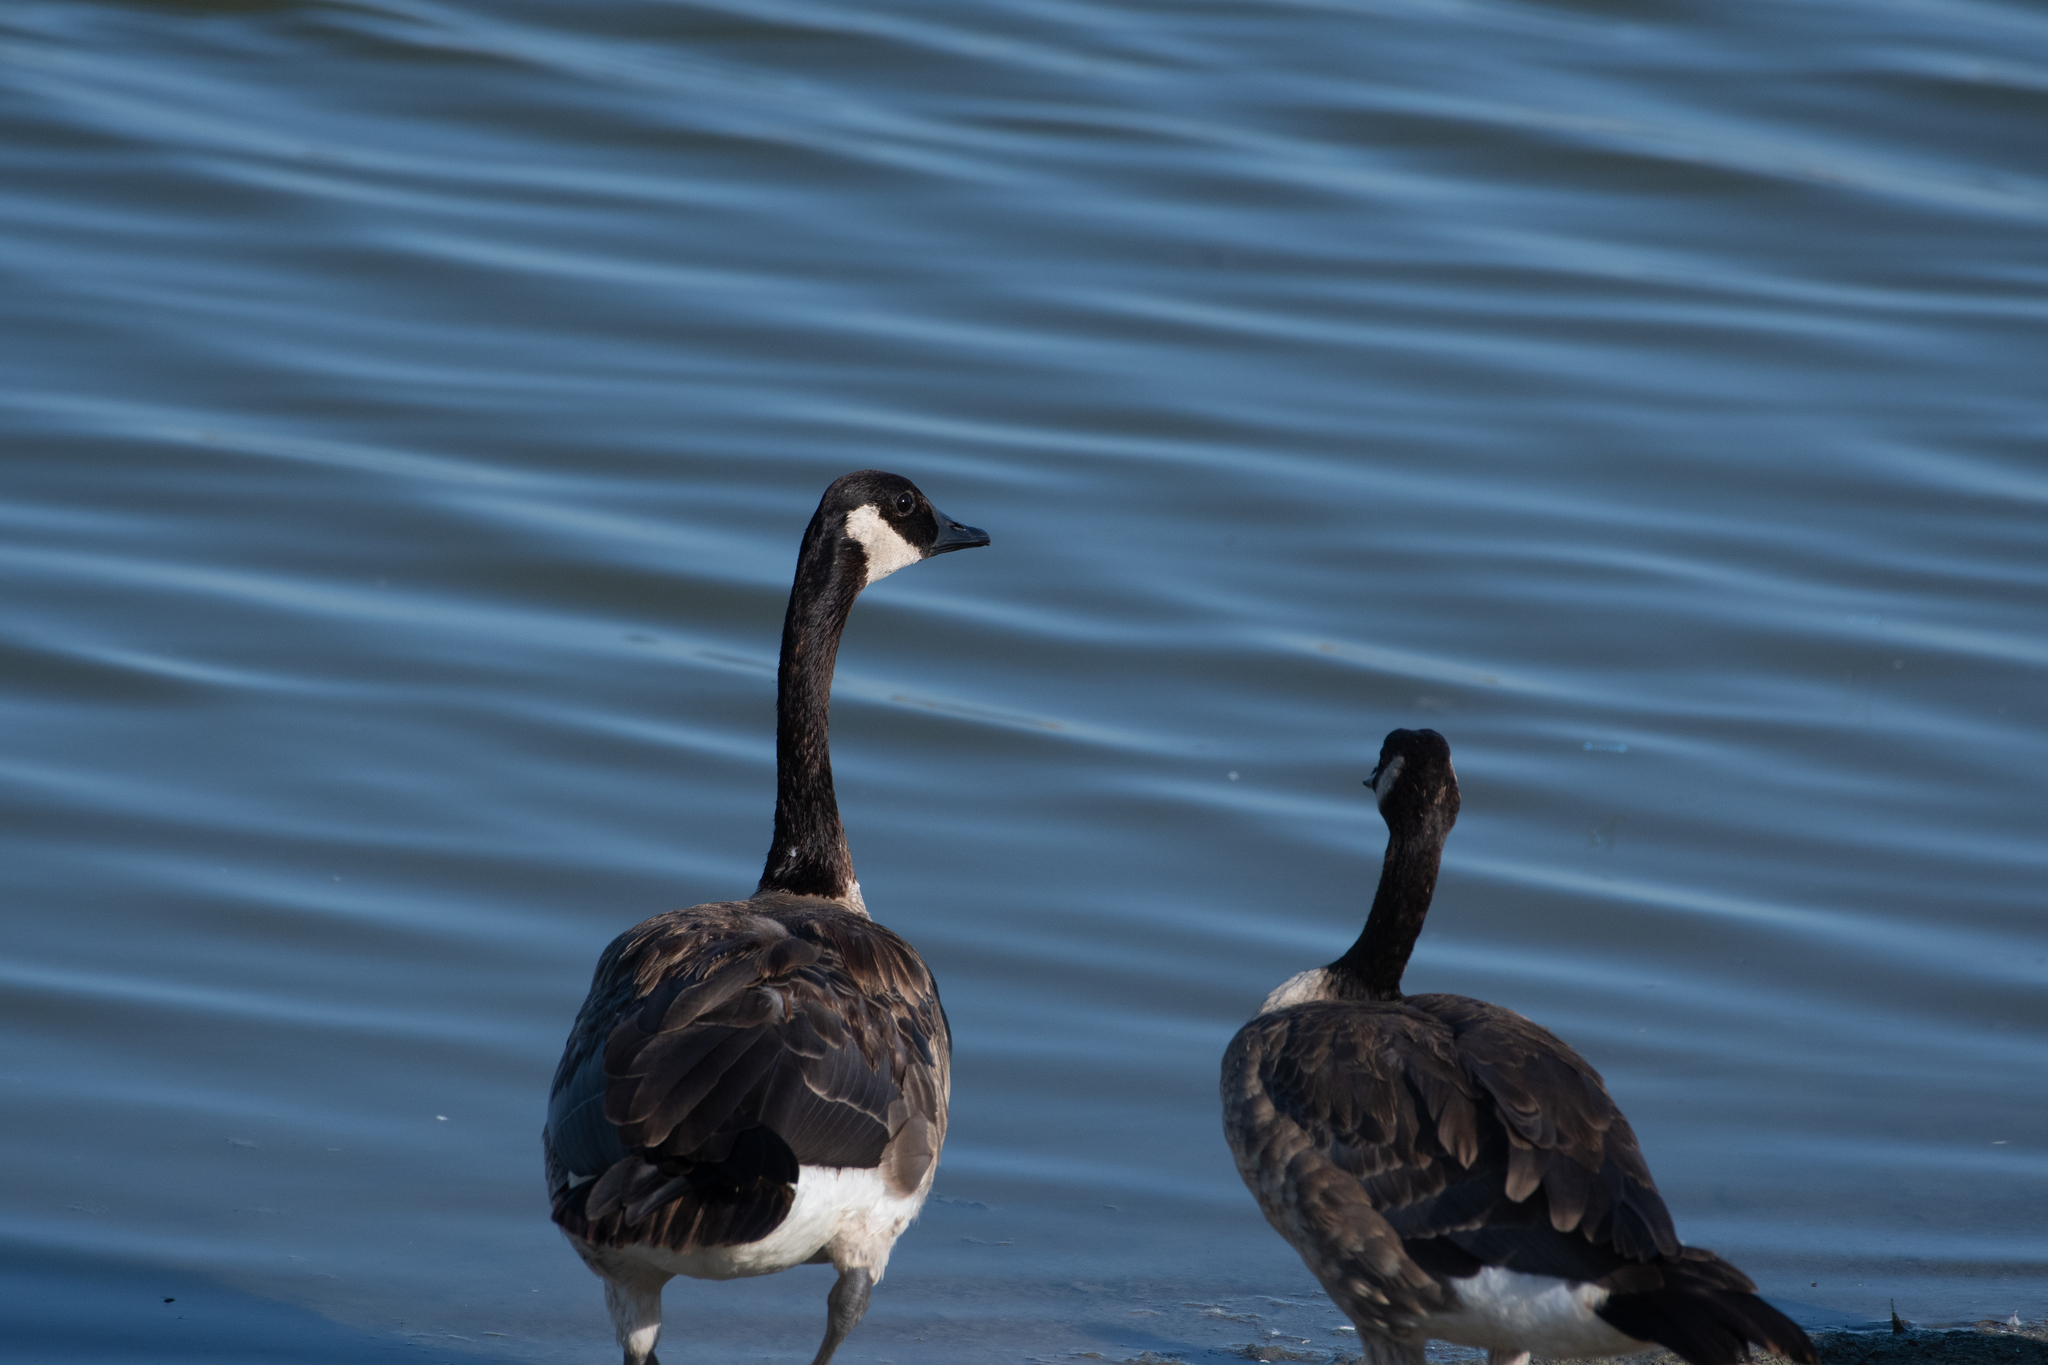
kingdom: Animalia
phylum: Chordata
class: Aves
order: Anseriformes
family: Anatidae
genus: Branta
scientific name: Branta canadensis
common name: Canada goose
